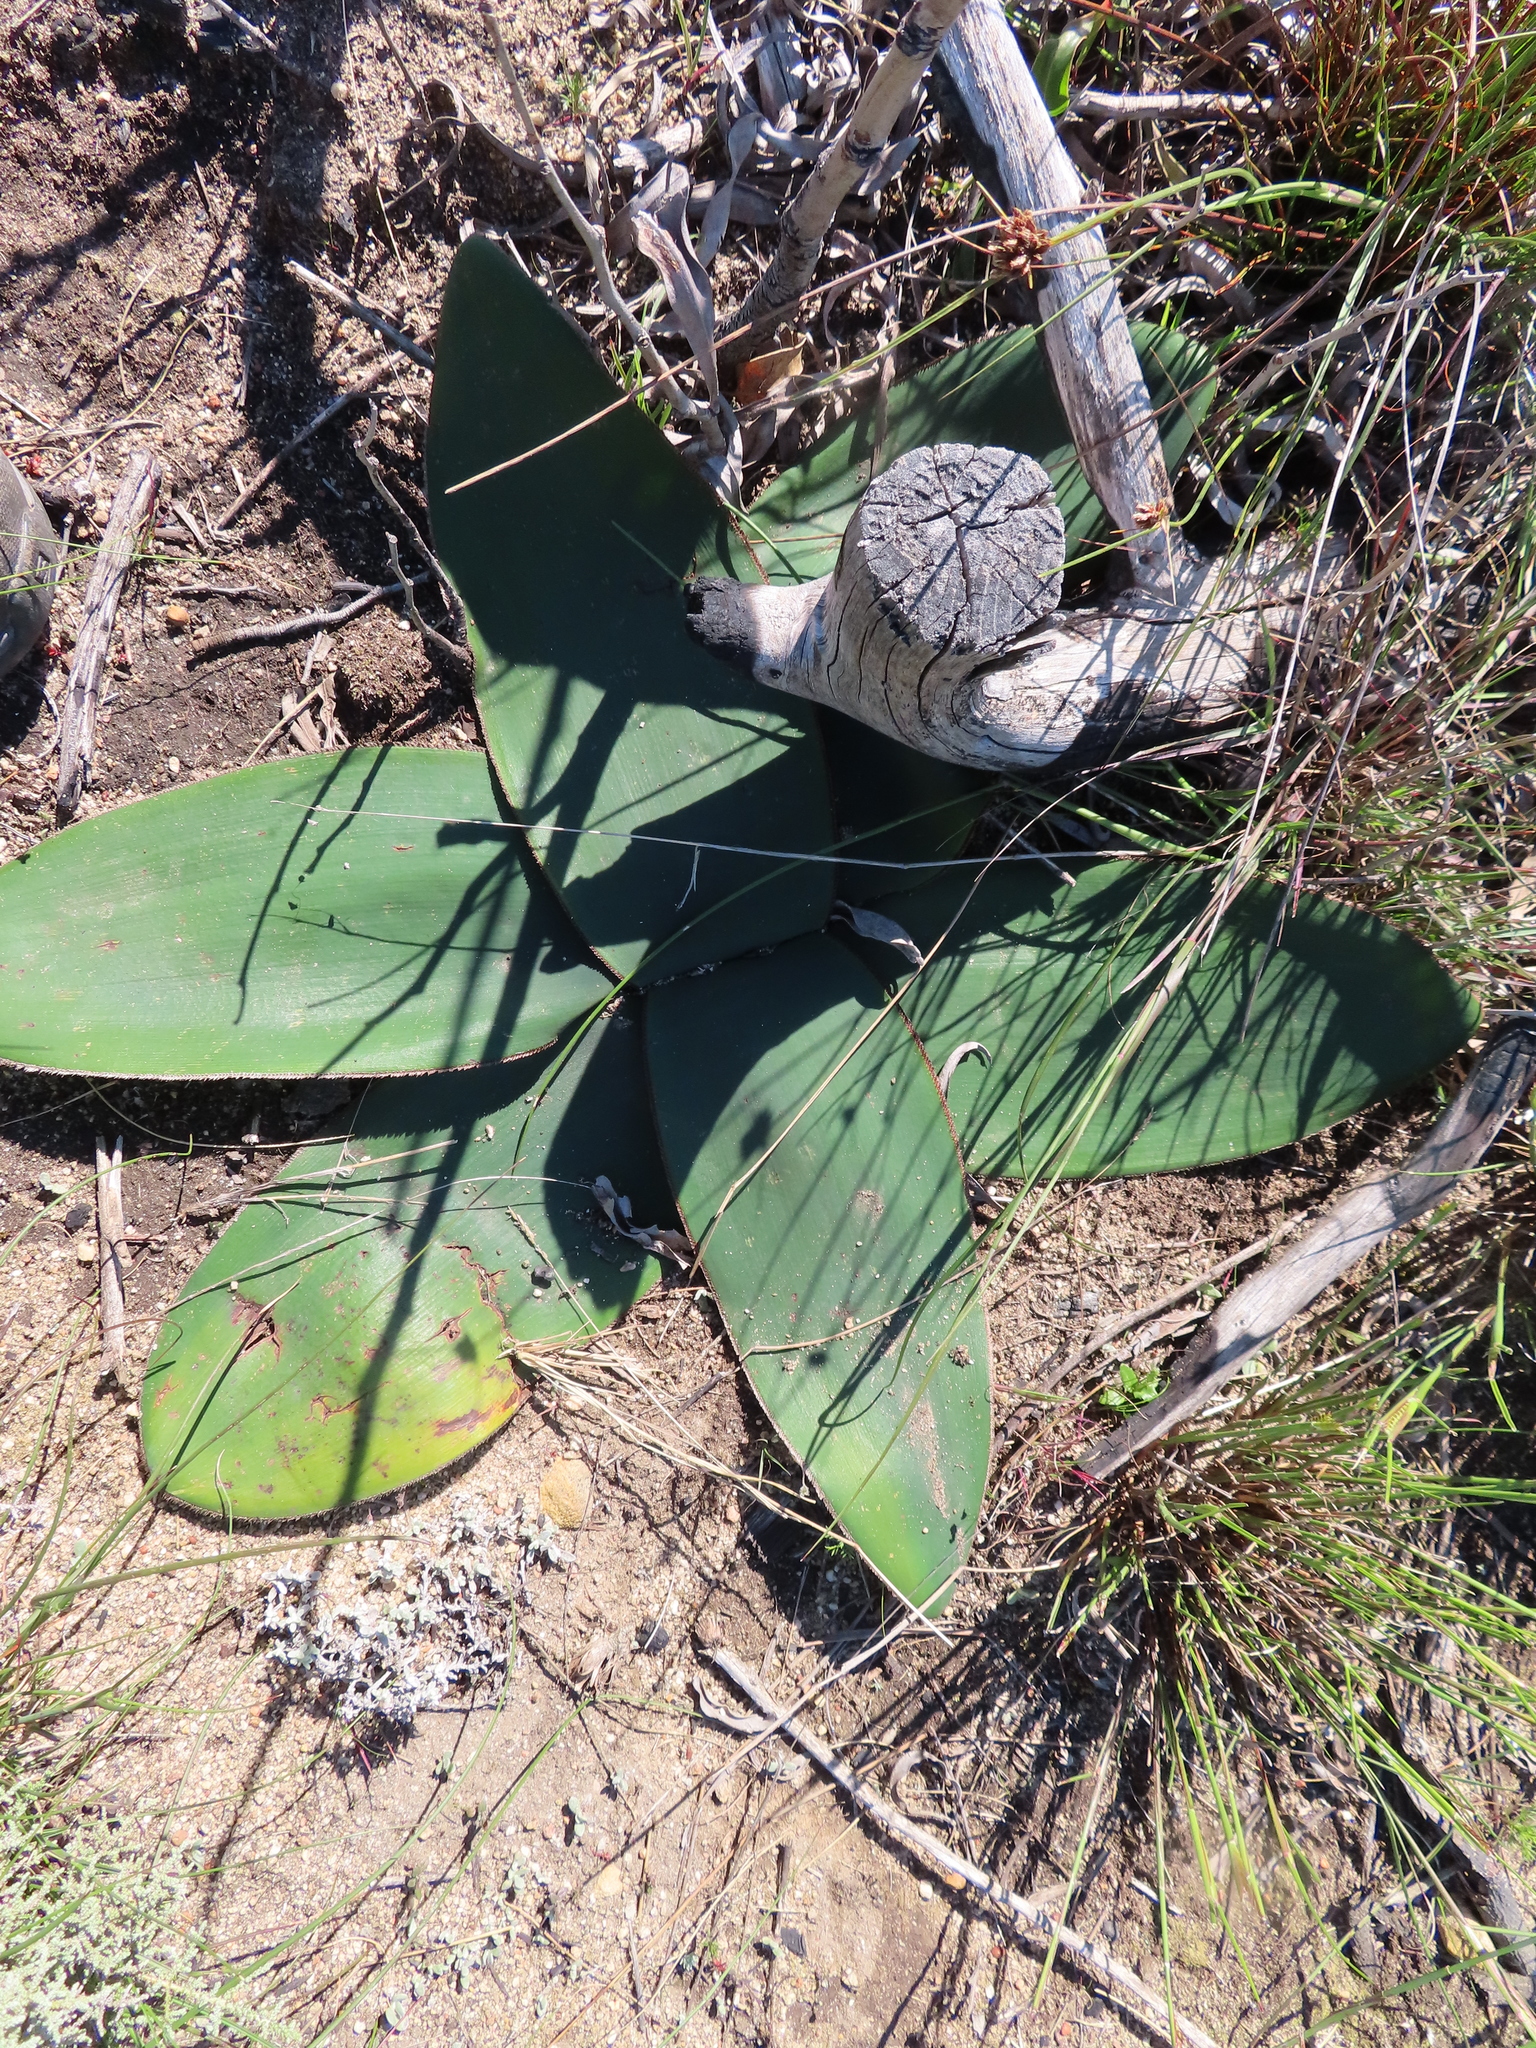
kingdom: Plantae
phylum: Tracheophyta
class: Liliopsida
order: Asparagales
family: Amaryllidaceae
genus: Crossyne
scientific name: Crossyne guttata
